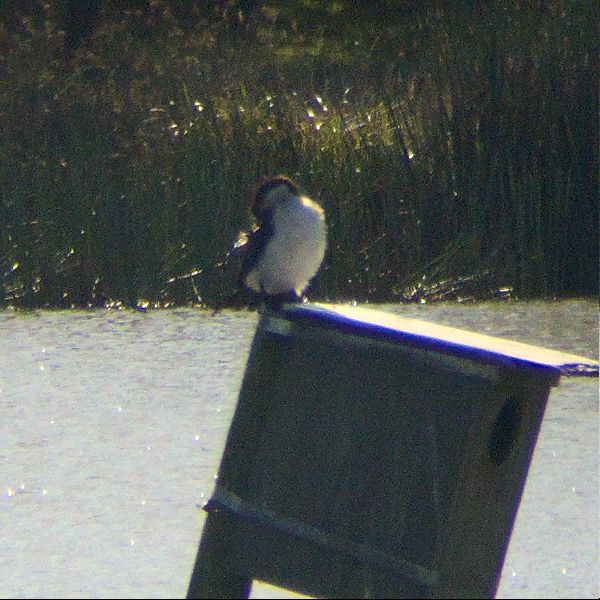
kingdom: Animalia
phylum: Chordata
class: Aves
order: Suliformes
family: Phalacrocoracidae
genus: Microcarbo
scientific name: Microcarbo melanoleucos
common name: Little pied cormorant
